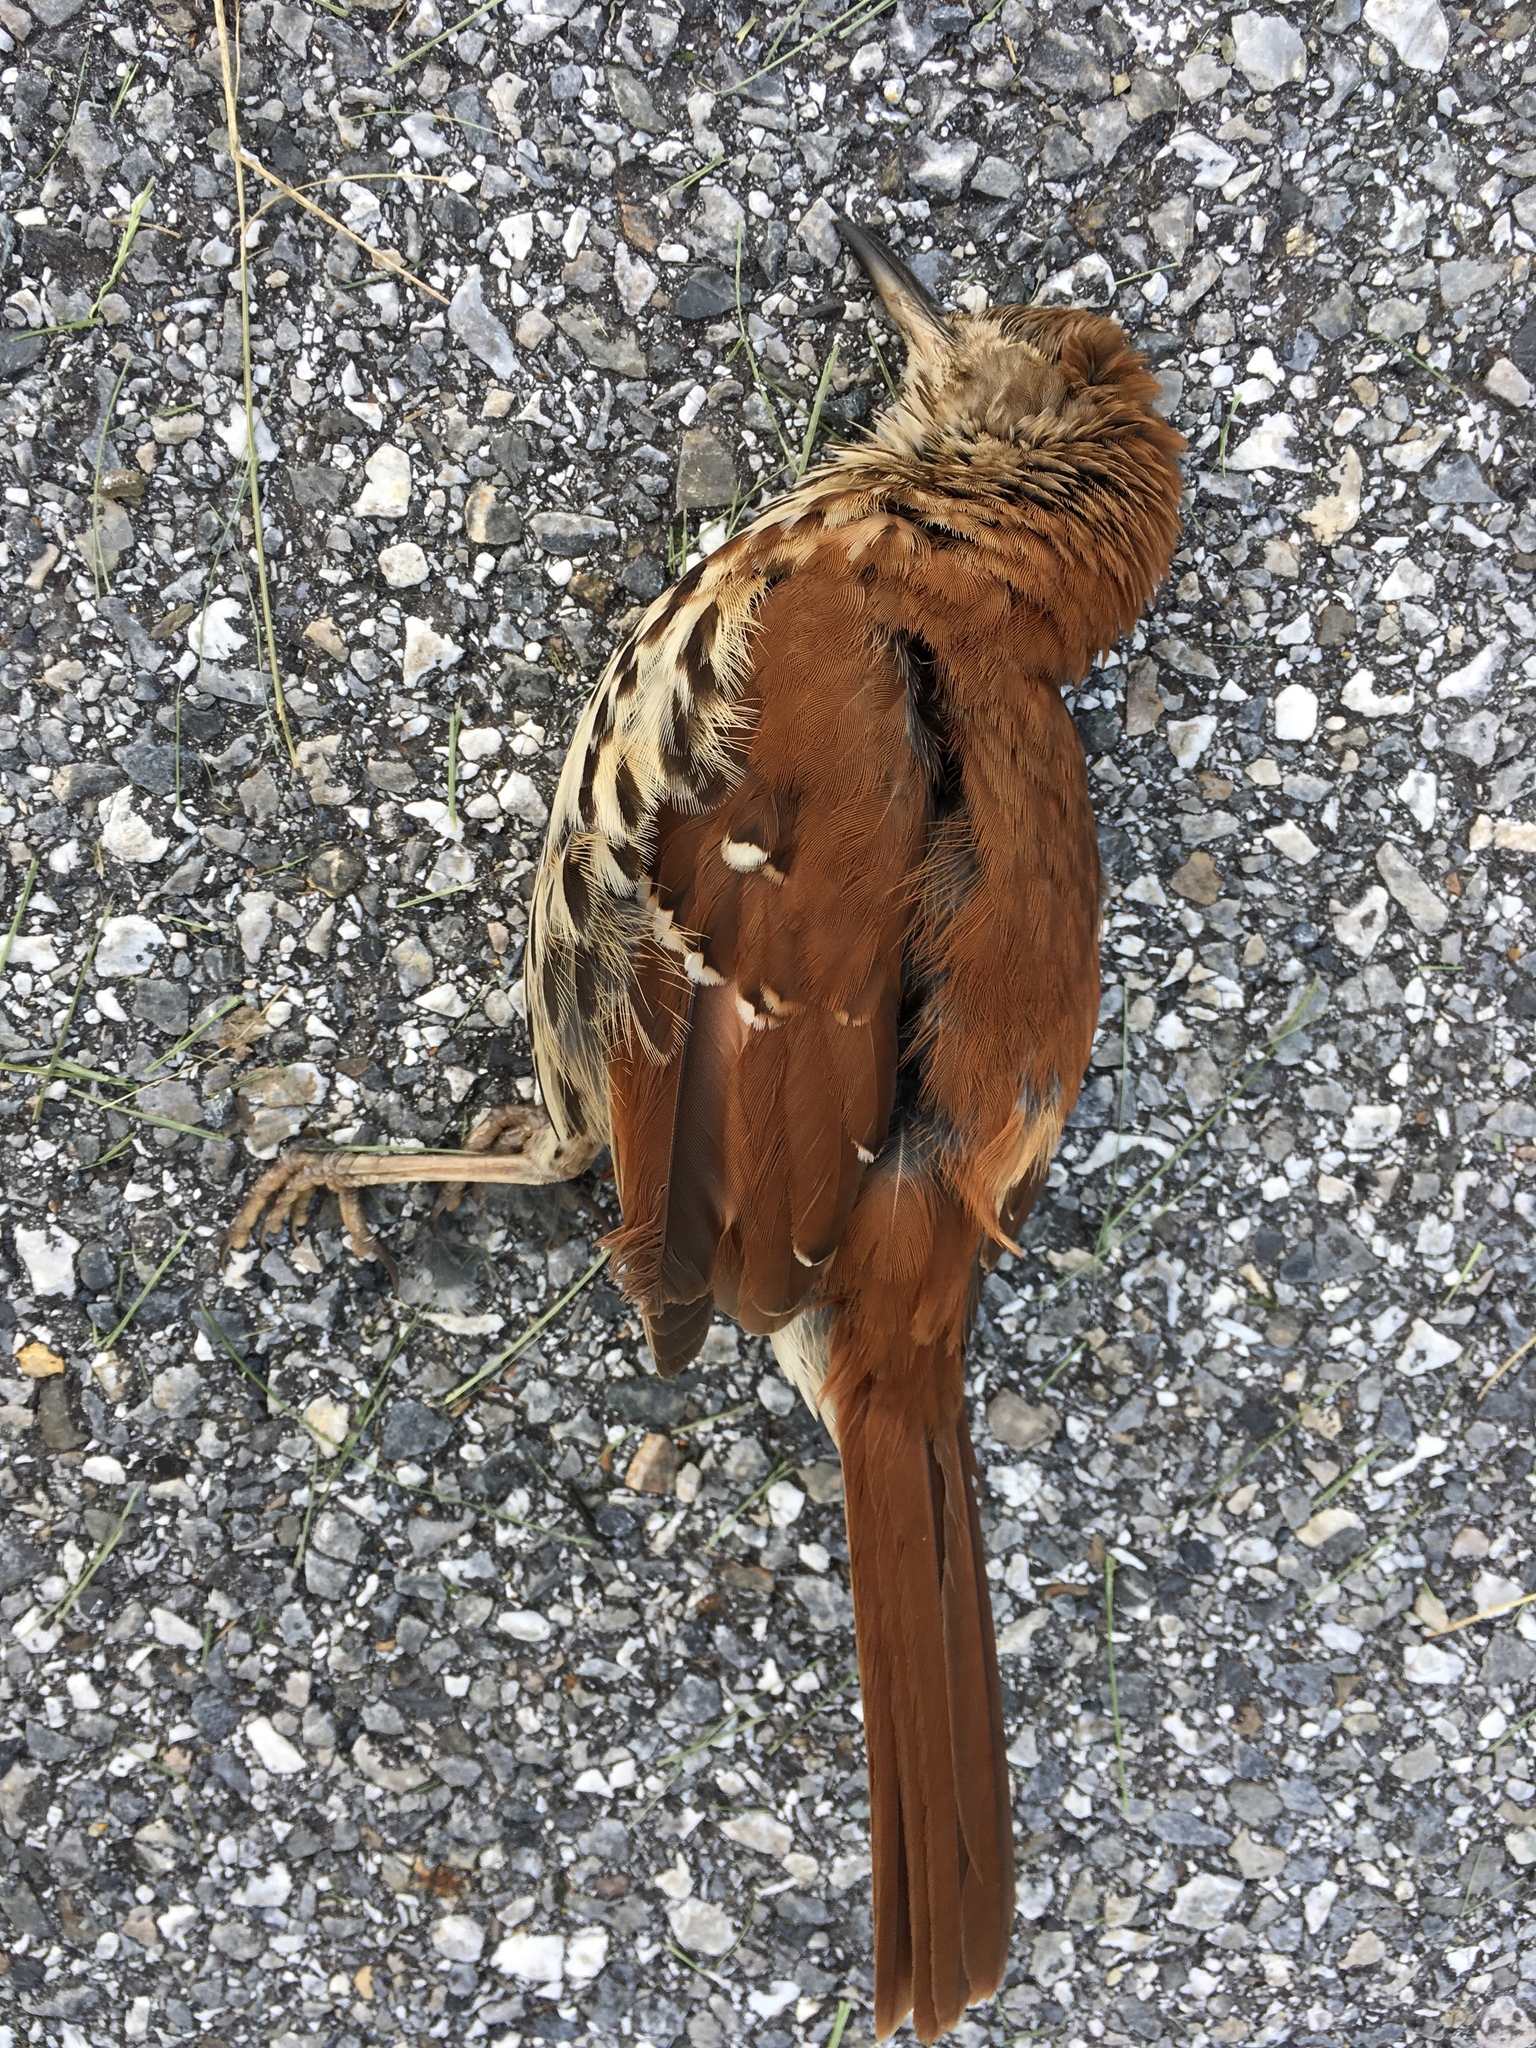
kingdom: Animalia
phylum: Chordata
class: Aves
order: Passeriformes
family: Mimidae
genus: Toxostoma
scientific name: Toxostoma rufum
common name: Brown thrasher
